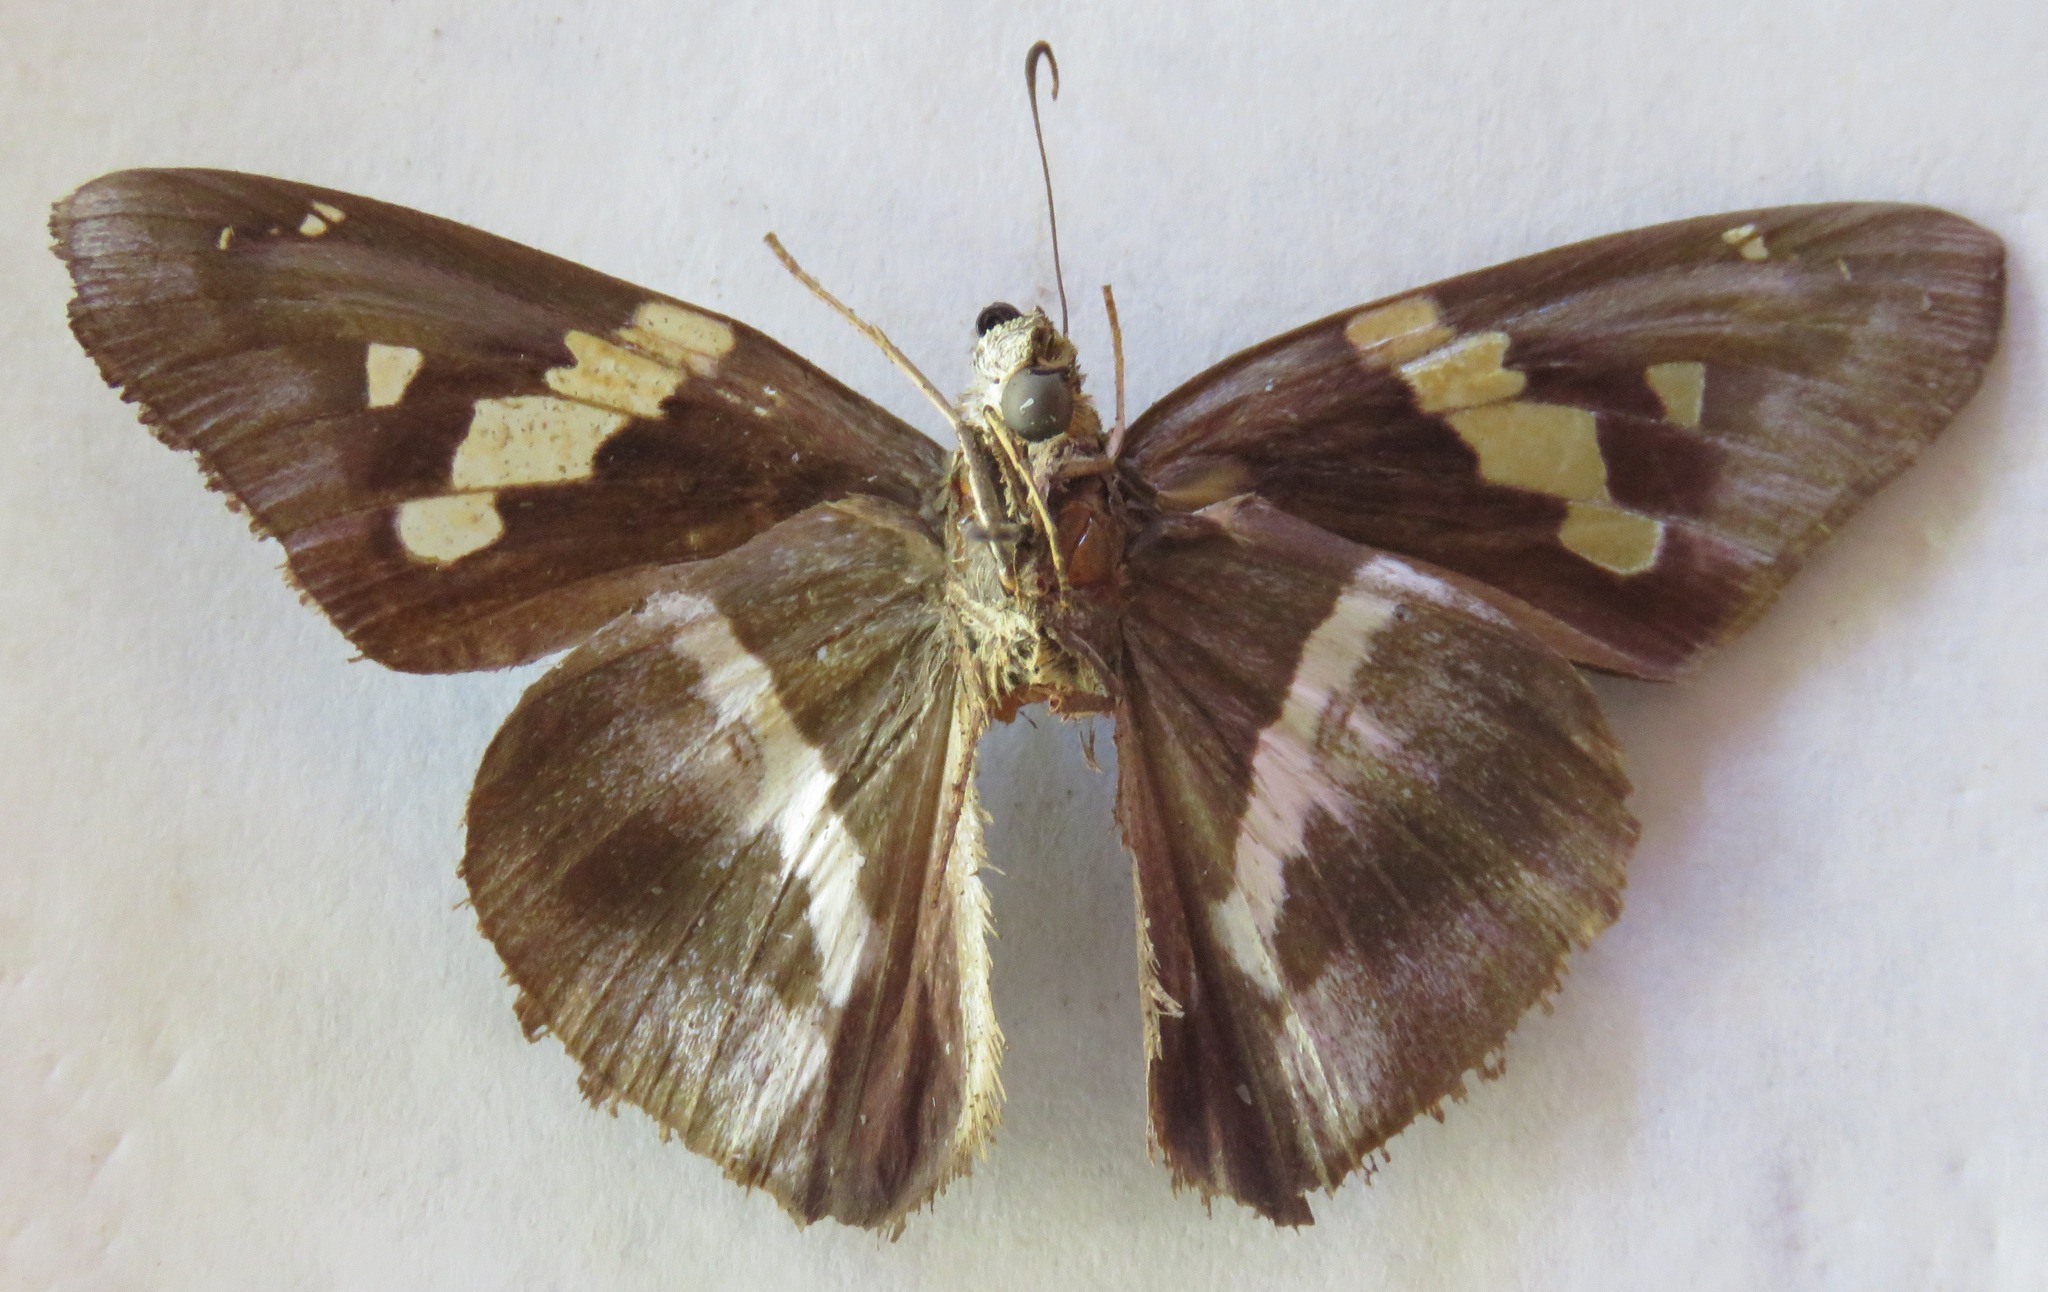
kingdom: Animalia
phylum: Arthropoda
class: Insecta
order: Lepidoptera
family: Hesperiidae
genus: Aguna
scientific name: Aguna asander
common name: Gold-spotted aguna
